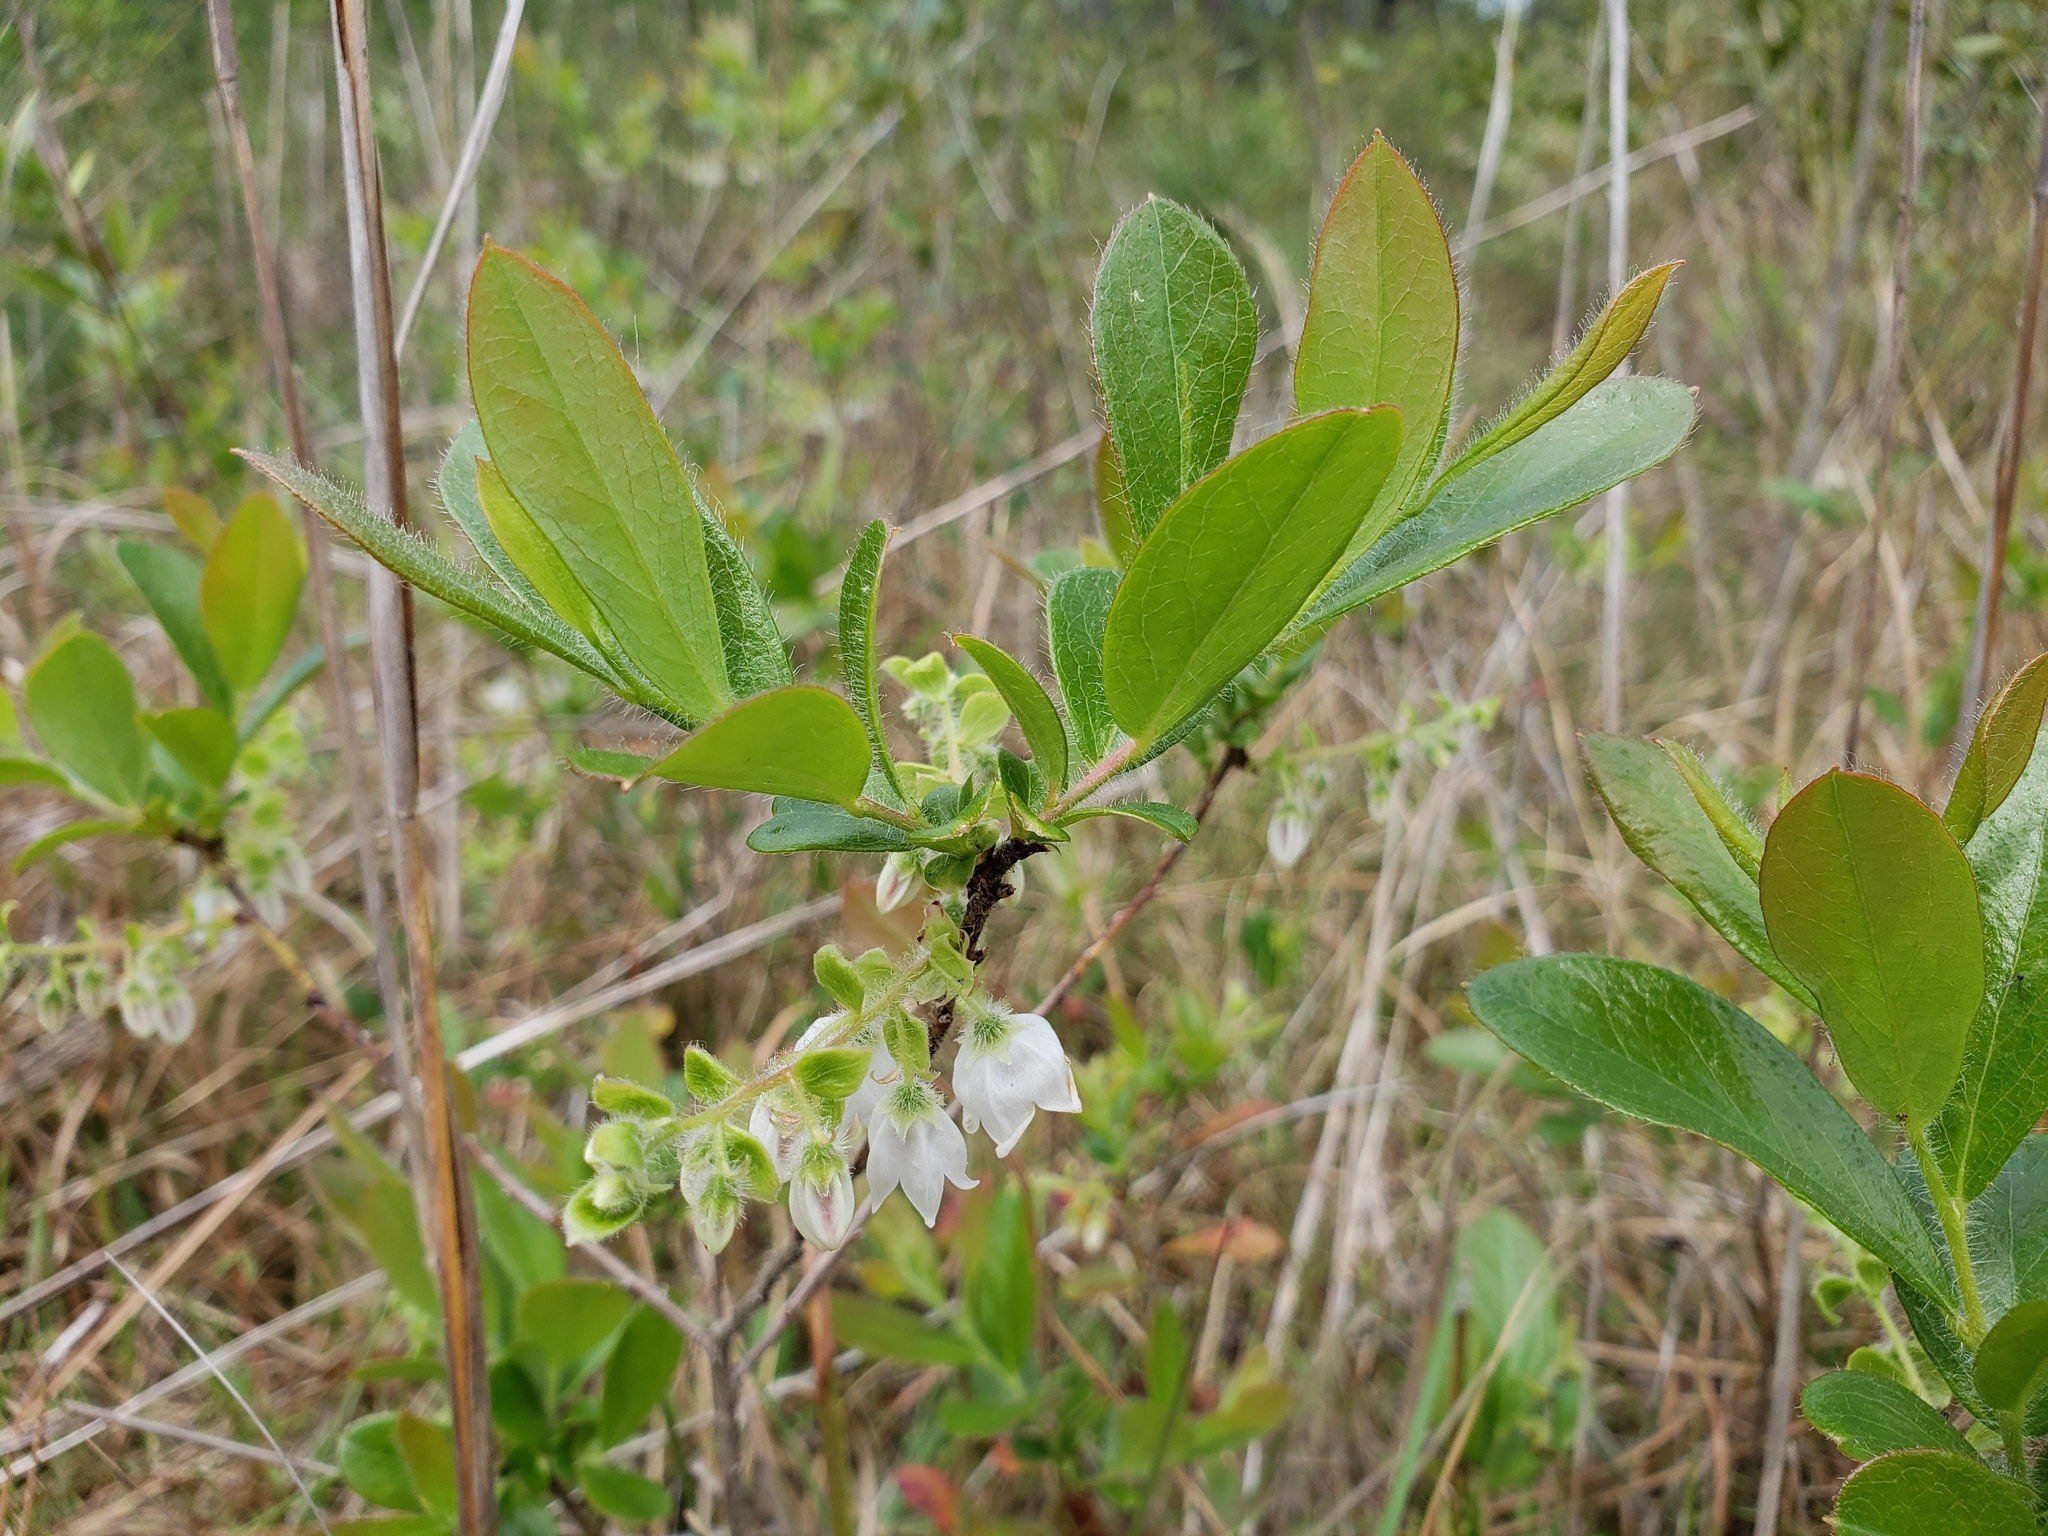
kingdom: Plantae
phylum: Tracheophyta
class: Magnoliopsida
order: Ericales
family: Ericaceae
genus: Gaylussacia
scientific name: Gaylussacia mosieri
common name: Hirsute huckleberry
